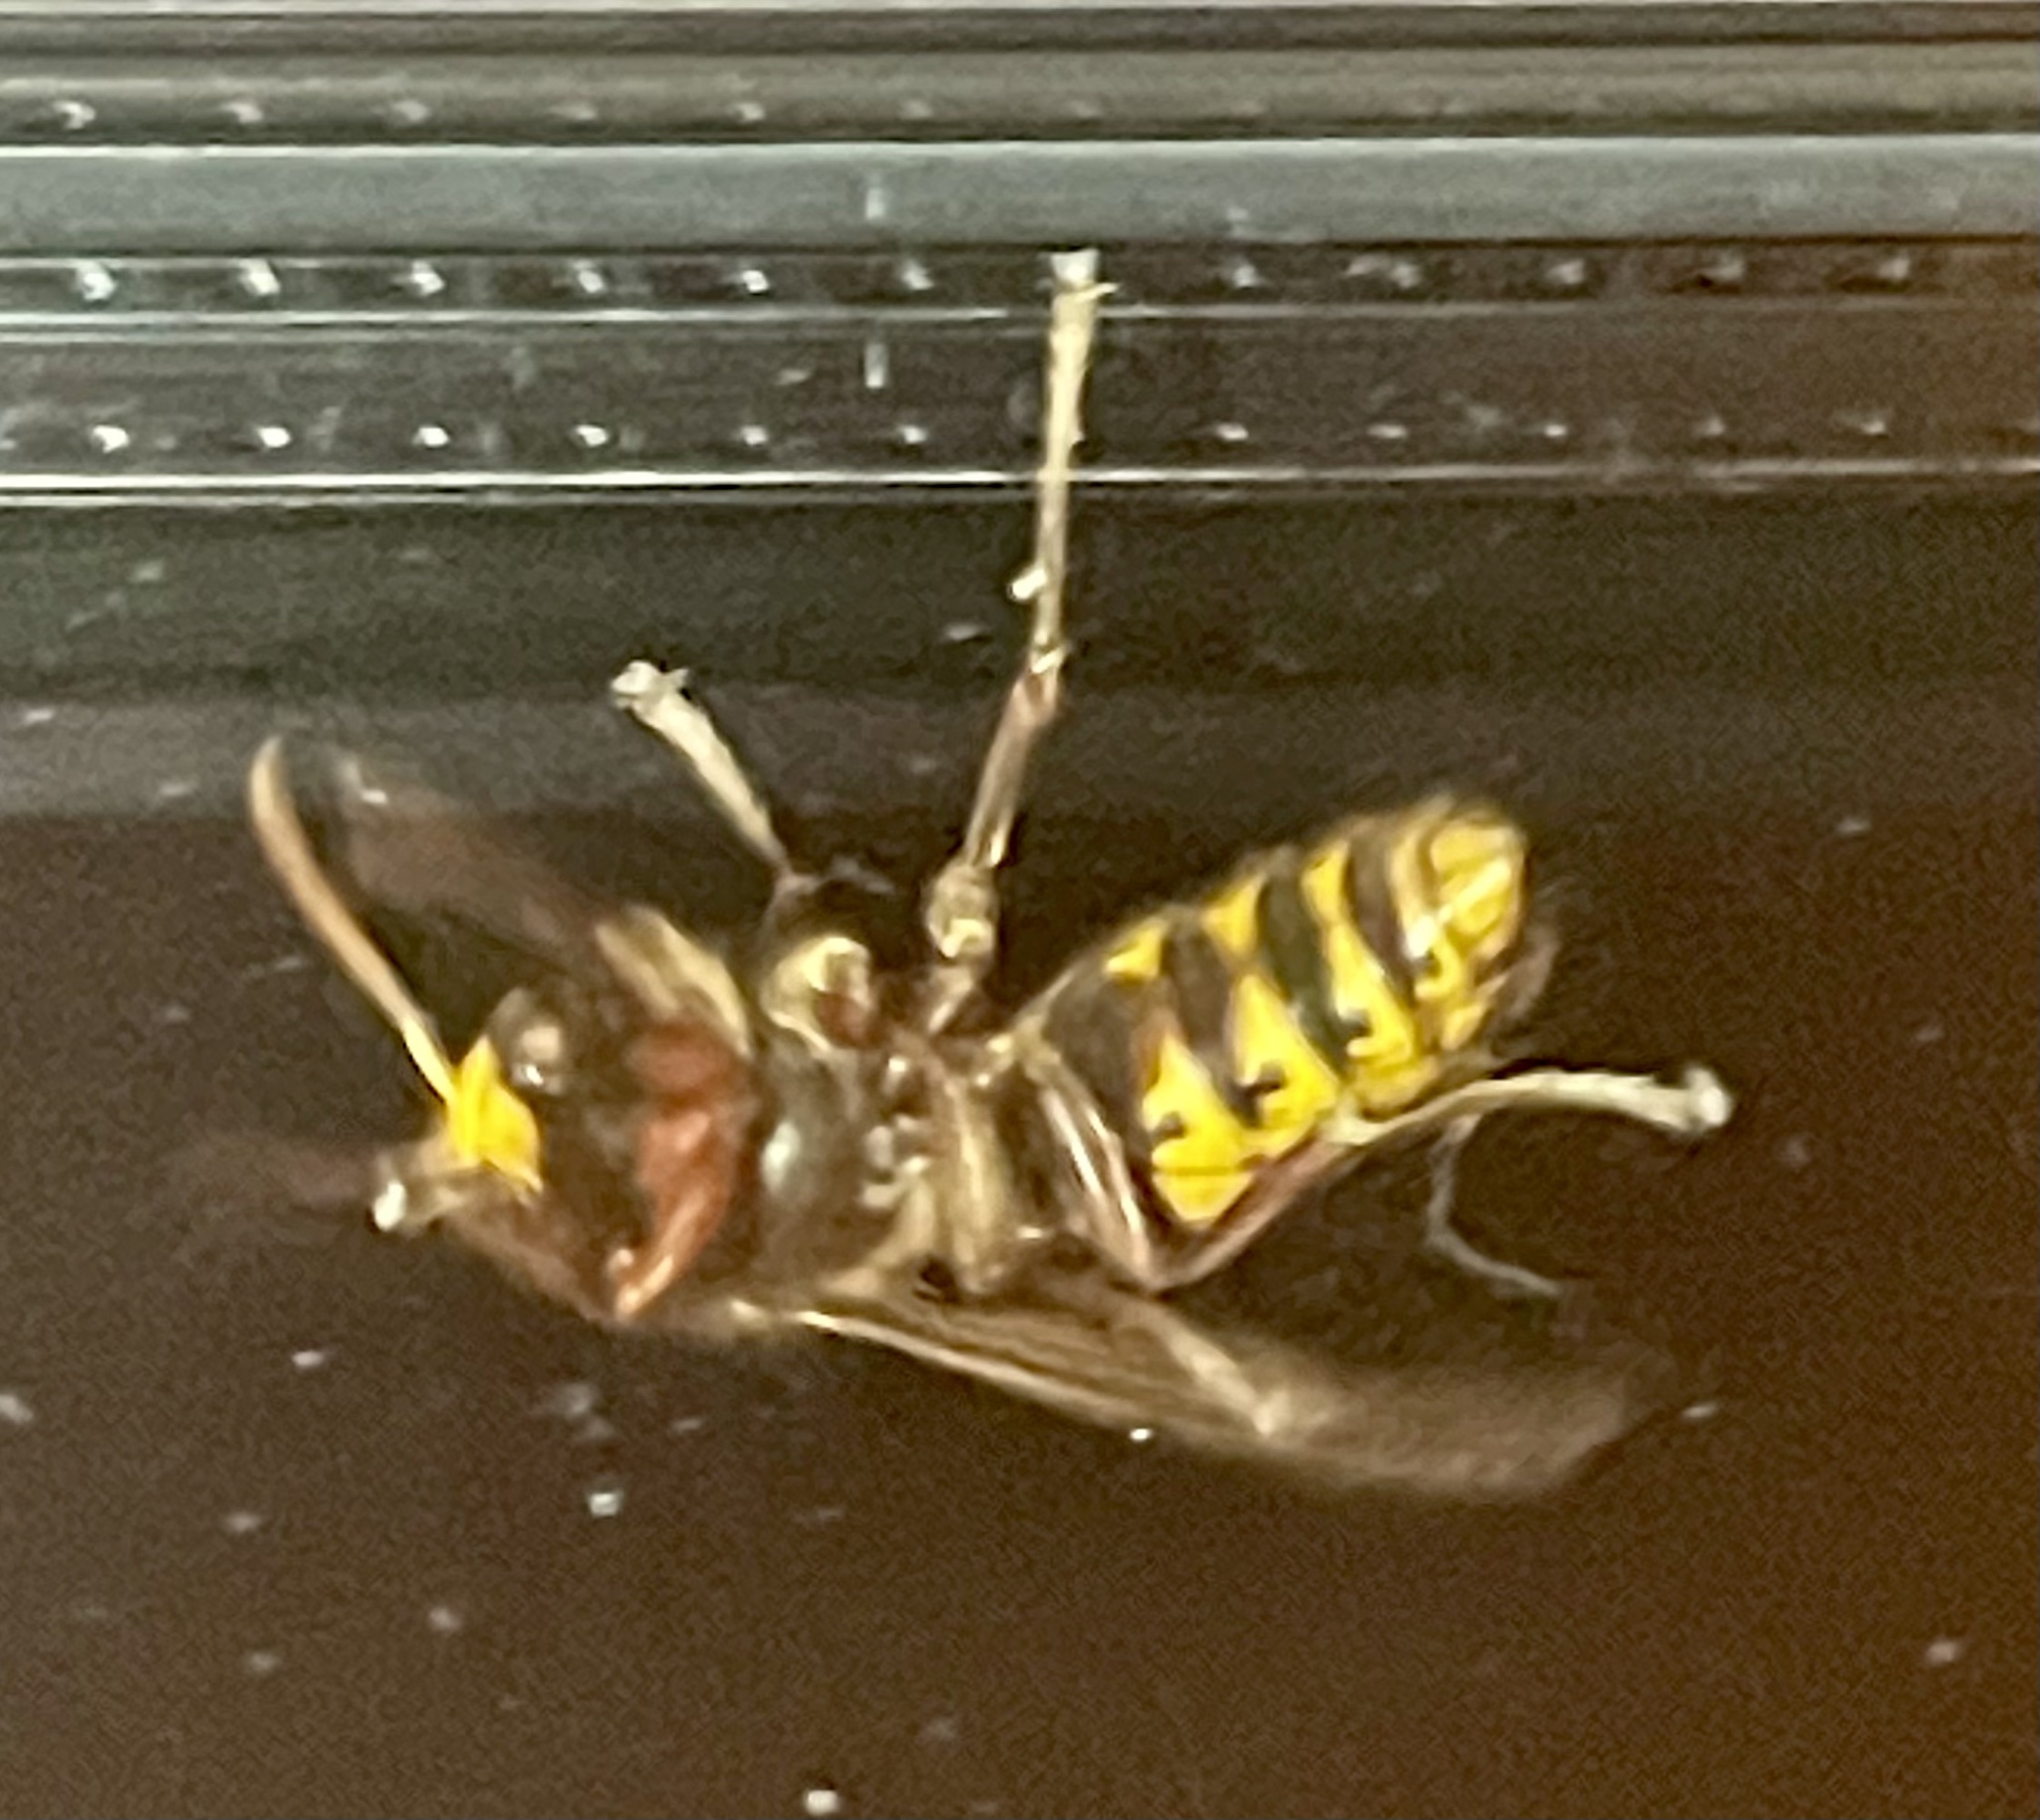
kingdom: Animalia
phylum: Arthropoda
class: Insecta
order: Hymenoptera
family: Vespidae
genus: Vespa
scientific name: Vespa crabro
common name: Hornet
